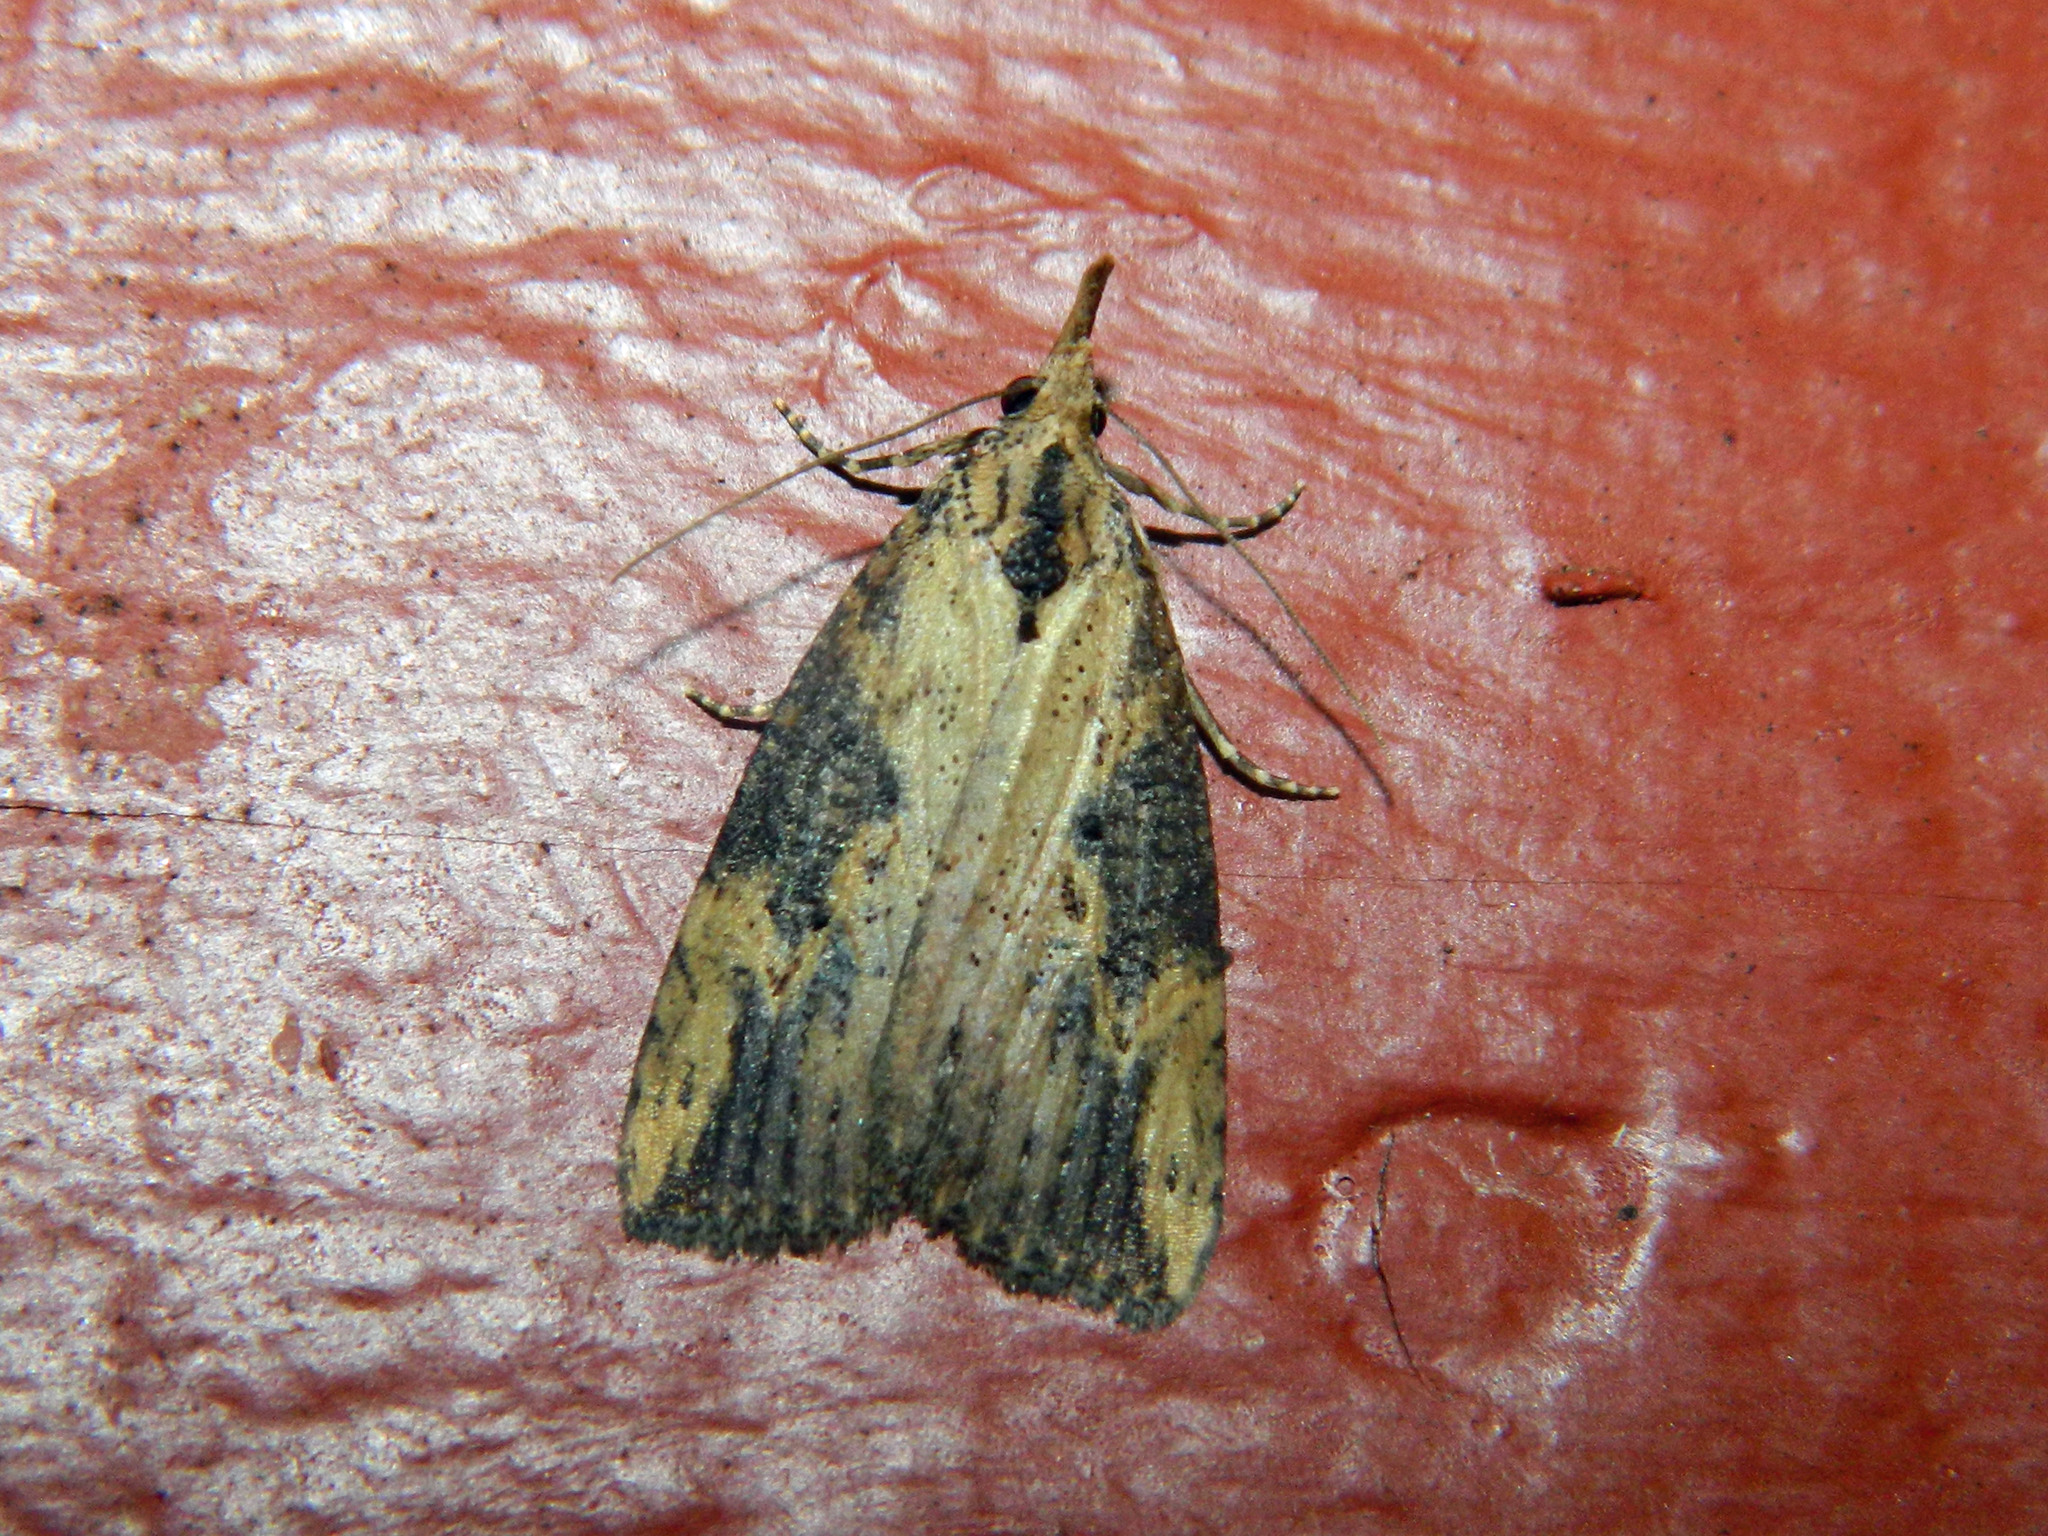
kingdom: Animalia
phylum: Arthropoda
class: Insecta
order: Lepidoptera
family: Erebidae
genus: Hypena
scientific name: Hypena humuli
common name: Hop vine snout
